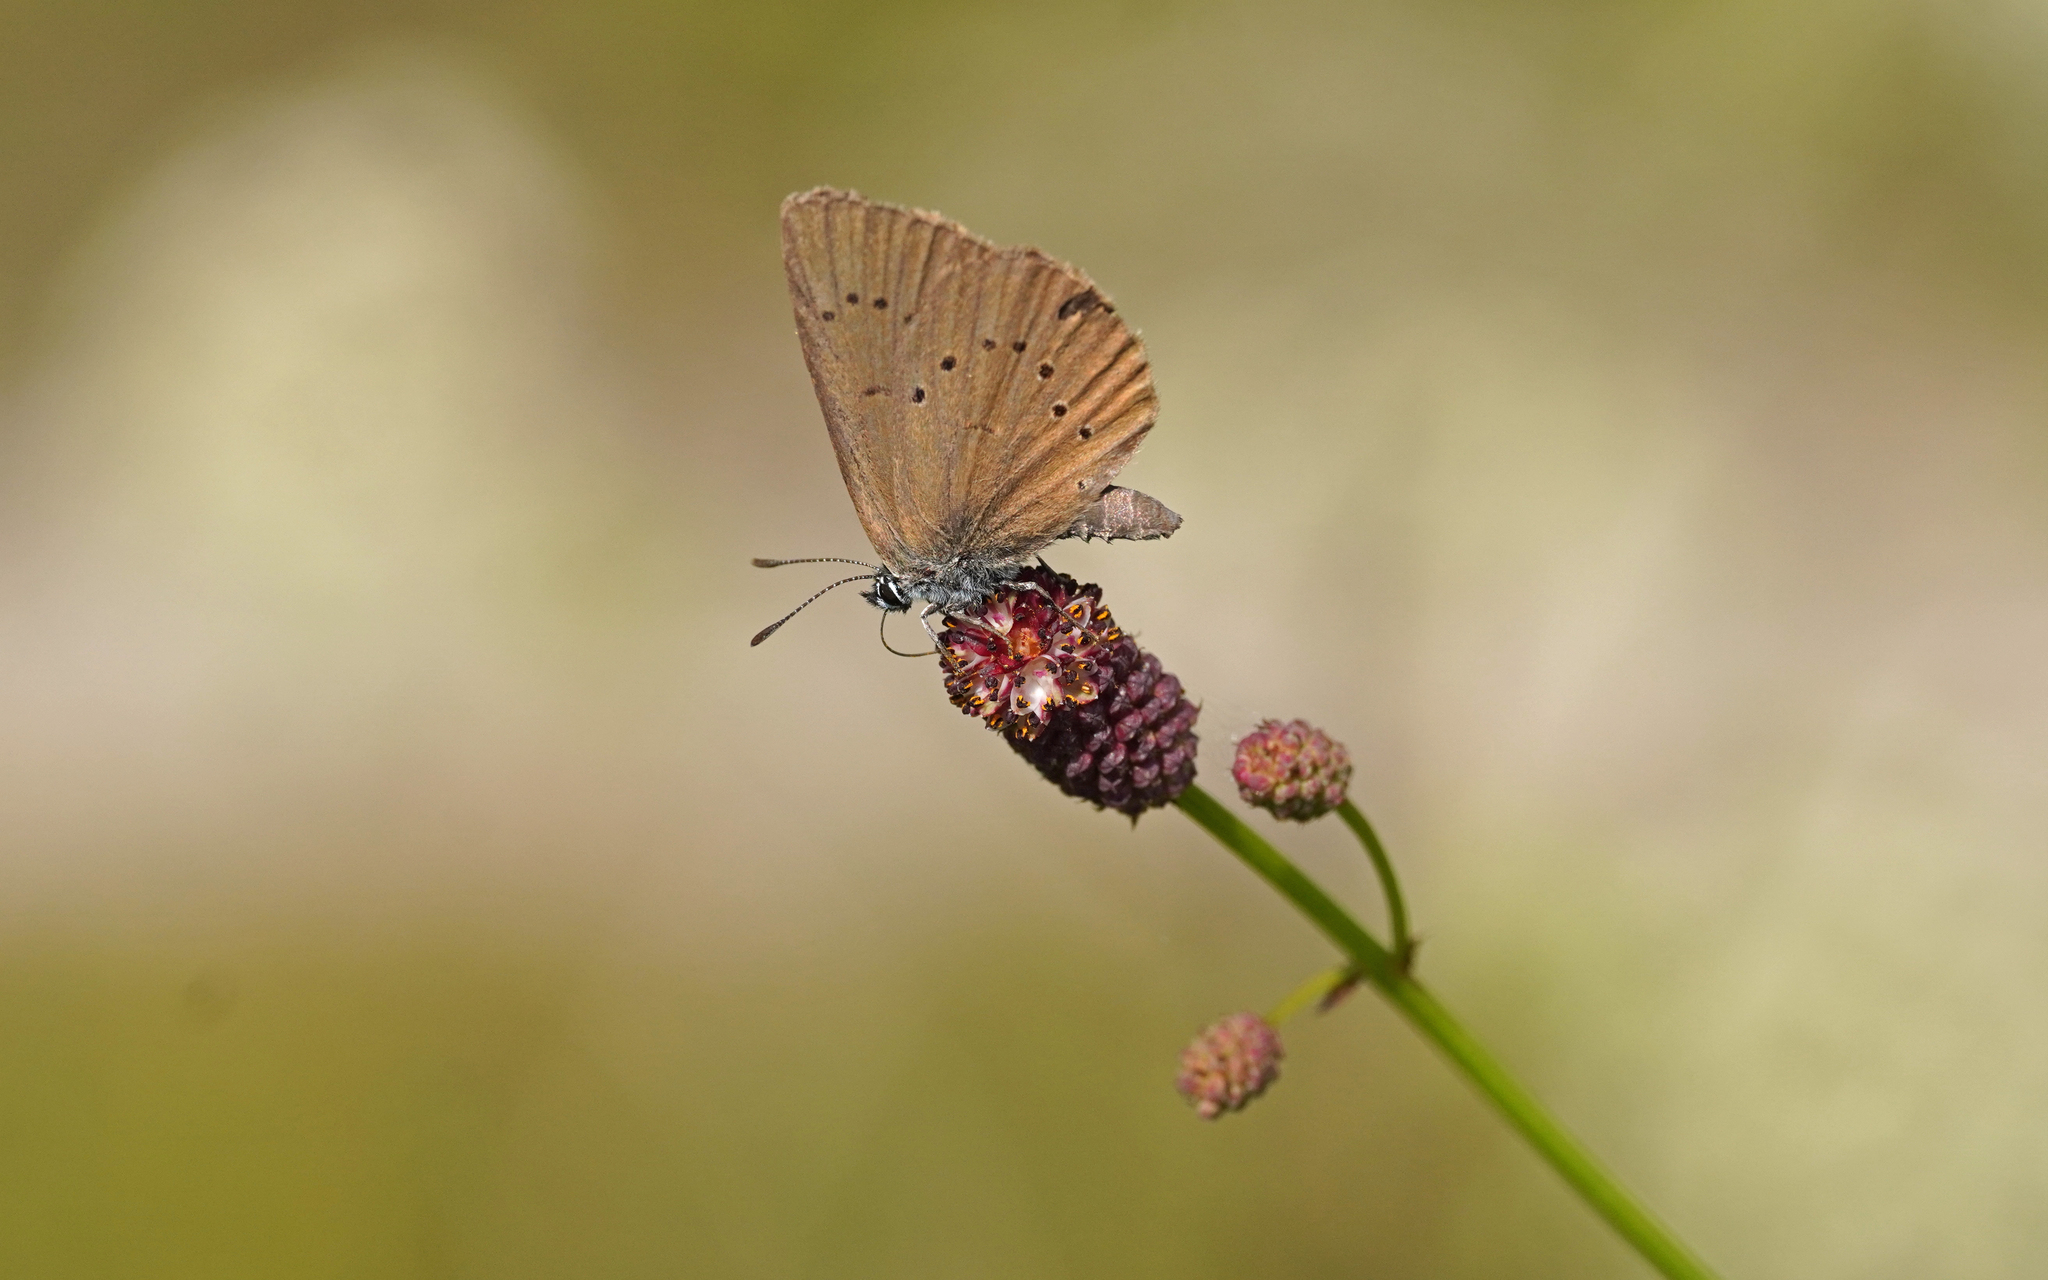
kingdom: Animalia
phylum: Arthropoda
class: Insecta
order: Lepidoptera
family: Lycaenidae
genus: Maculinea
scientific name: Maculinea nausithous
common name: Dusky large blue
